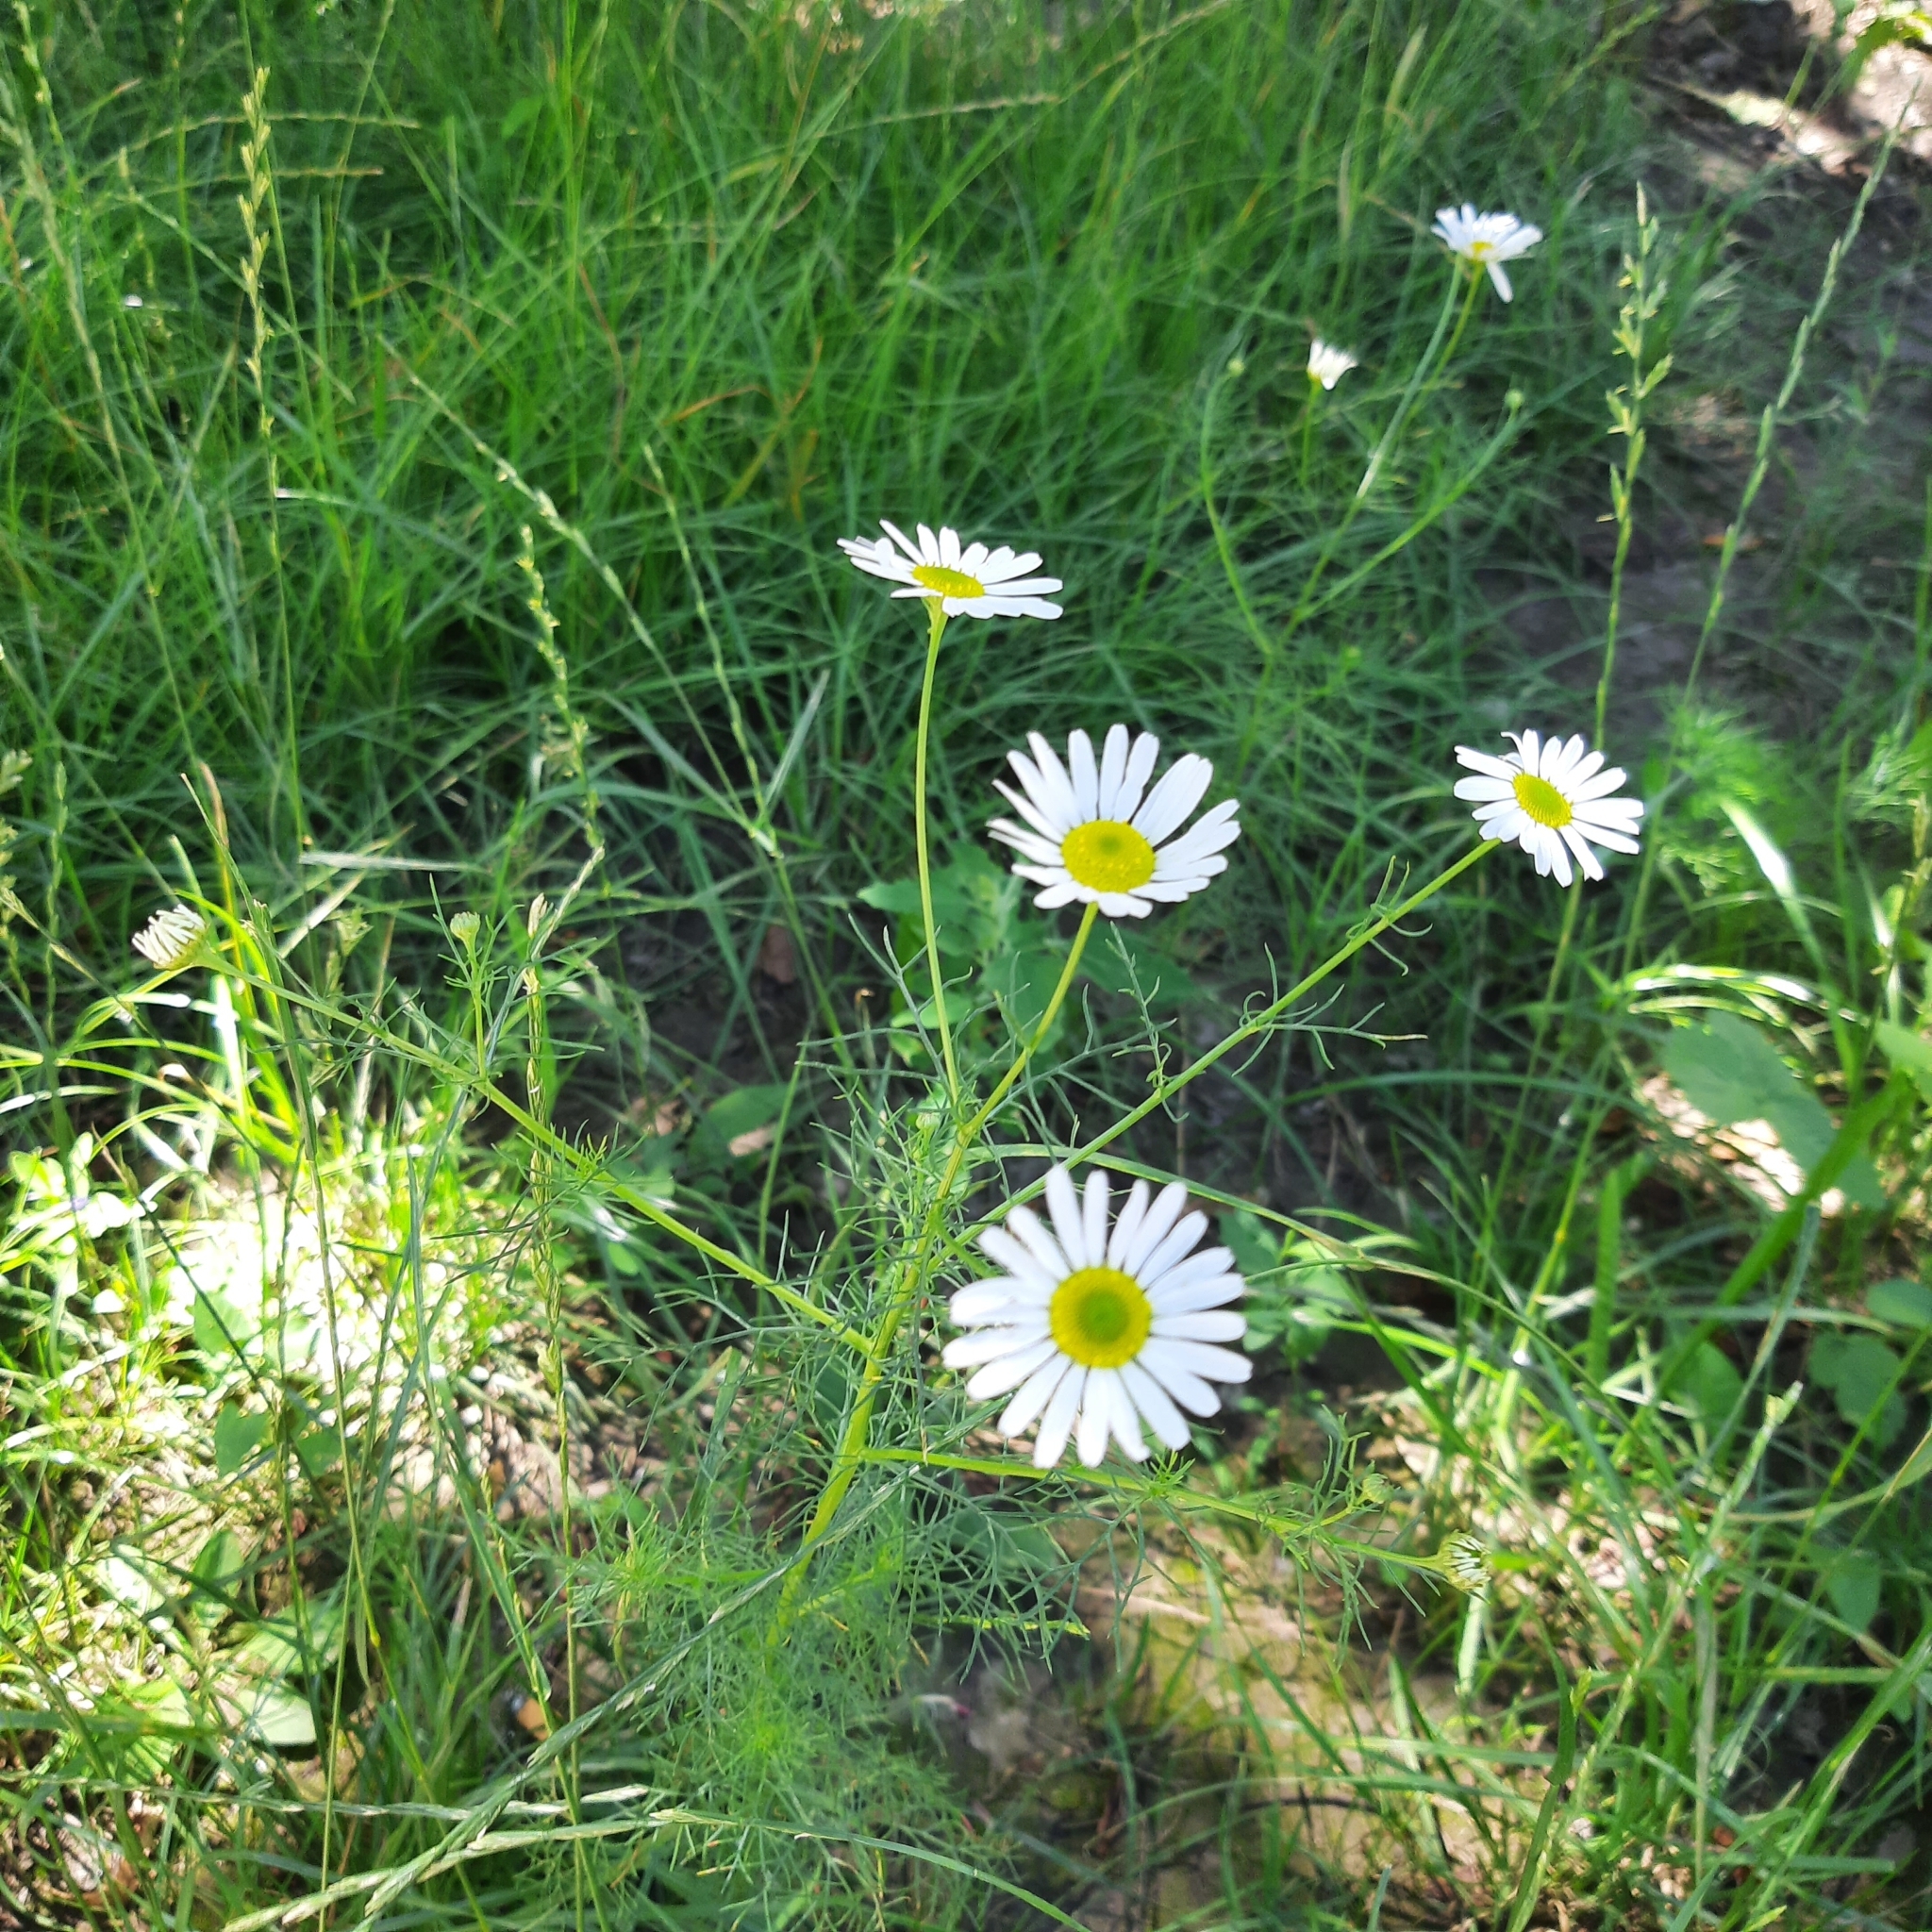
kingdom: Plantae
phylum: Tracheophyta
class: Magnoliopsida
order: Asterales
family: Asteraceae
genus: Tripleurospermum
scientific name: Tripleurospermum inodorum
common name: Scentless mayweed
